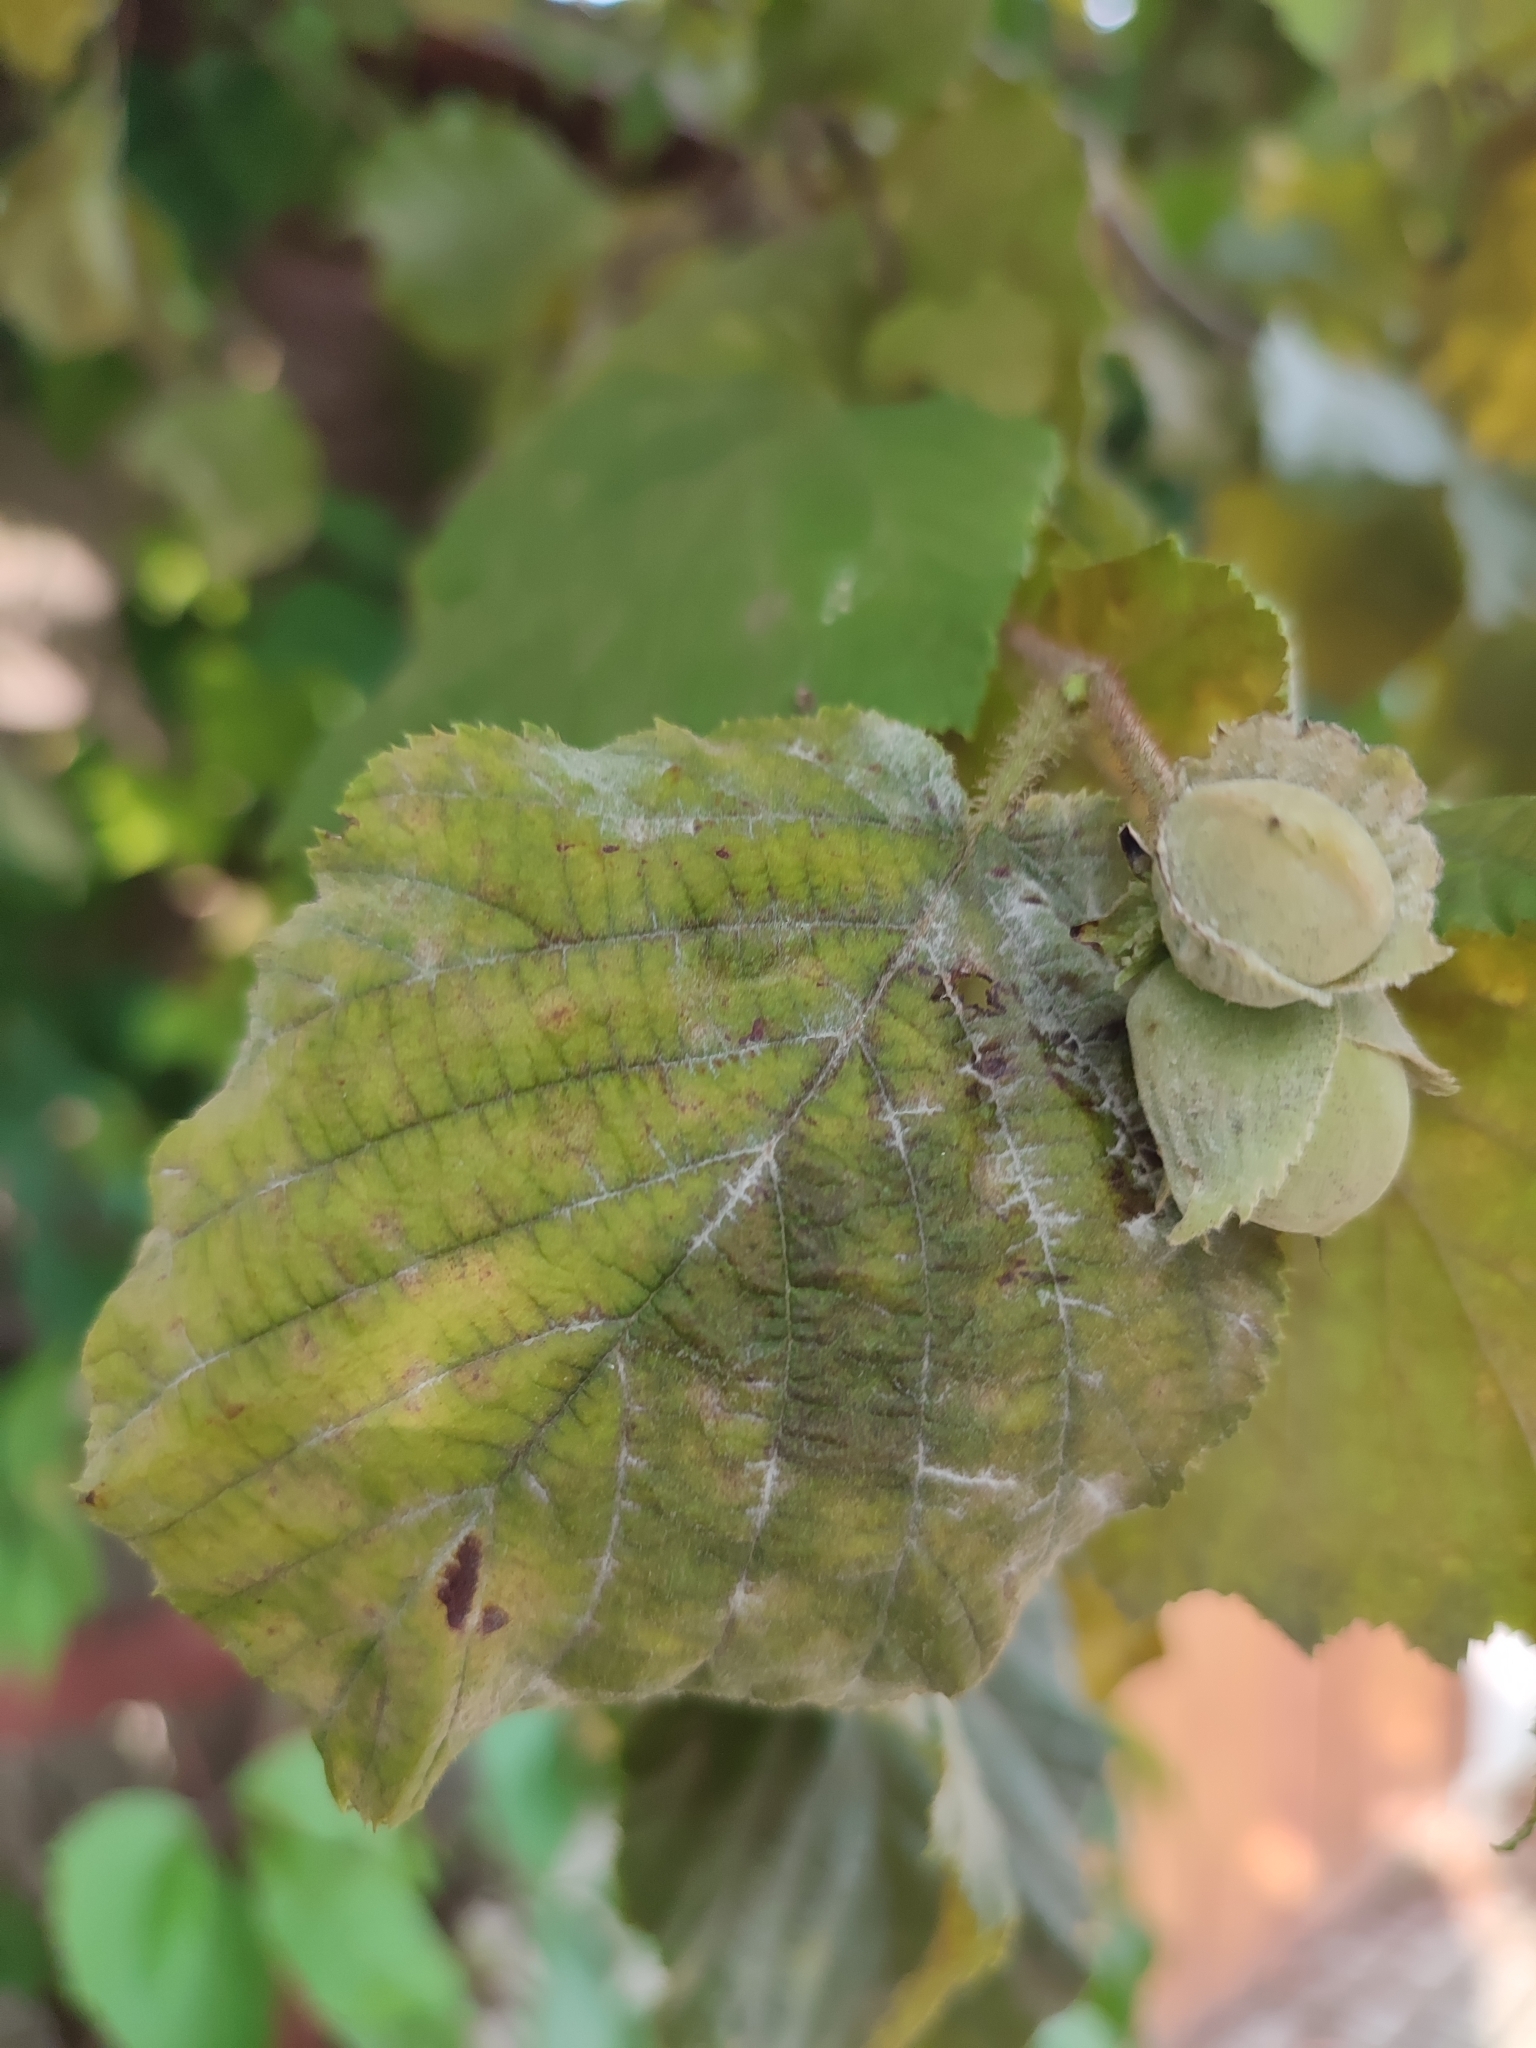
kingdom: Fungi
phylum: Ascomycota
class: Leotiomycetes
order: Helotiales
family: Erysiphaceae
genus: Erysiphe
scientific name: Erysiphe corylacearum
